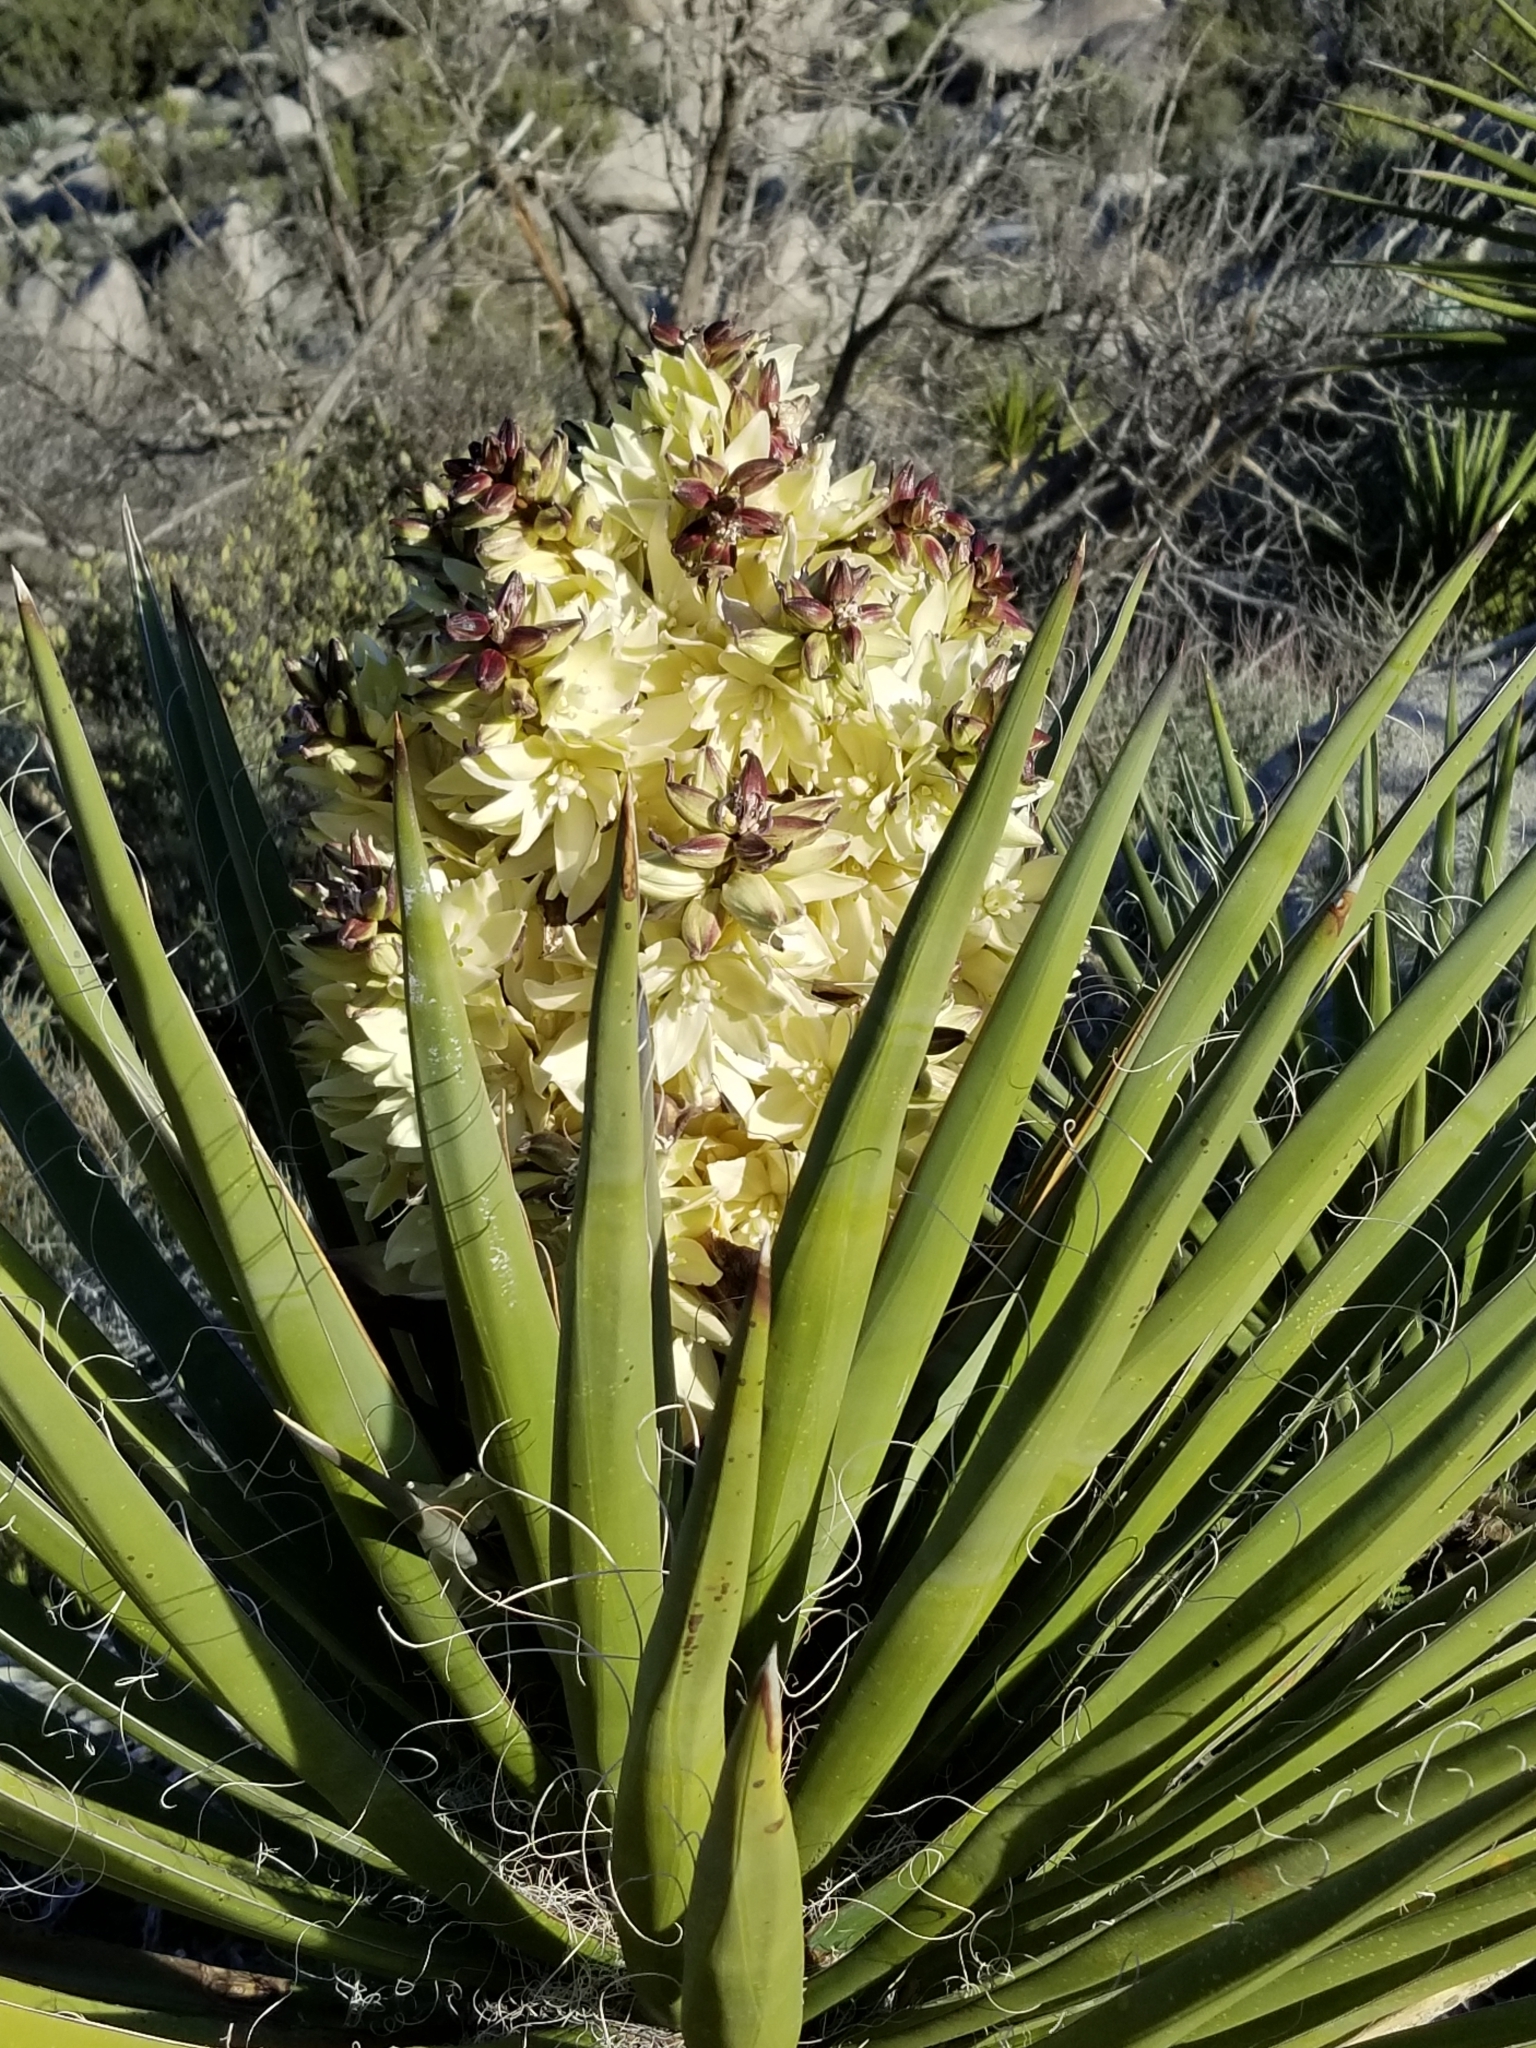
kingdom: Plantae
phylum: Tracheophyta
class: Liliopsida
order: Asparagales
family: Asparagaceae
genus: Yucca
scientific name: Yucca schidigera
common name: Mojave yucca
